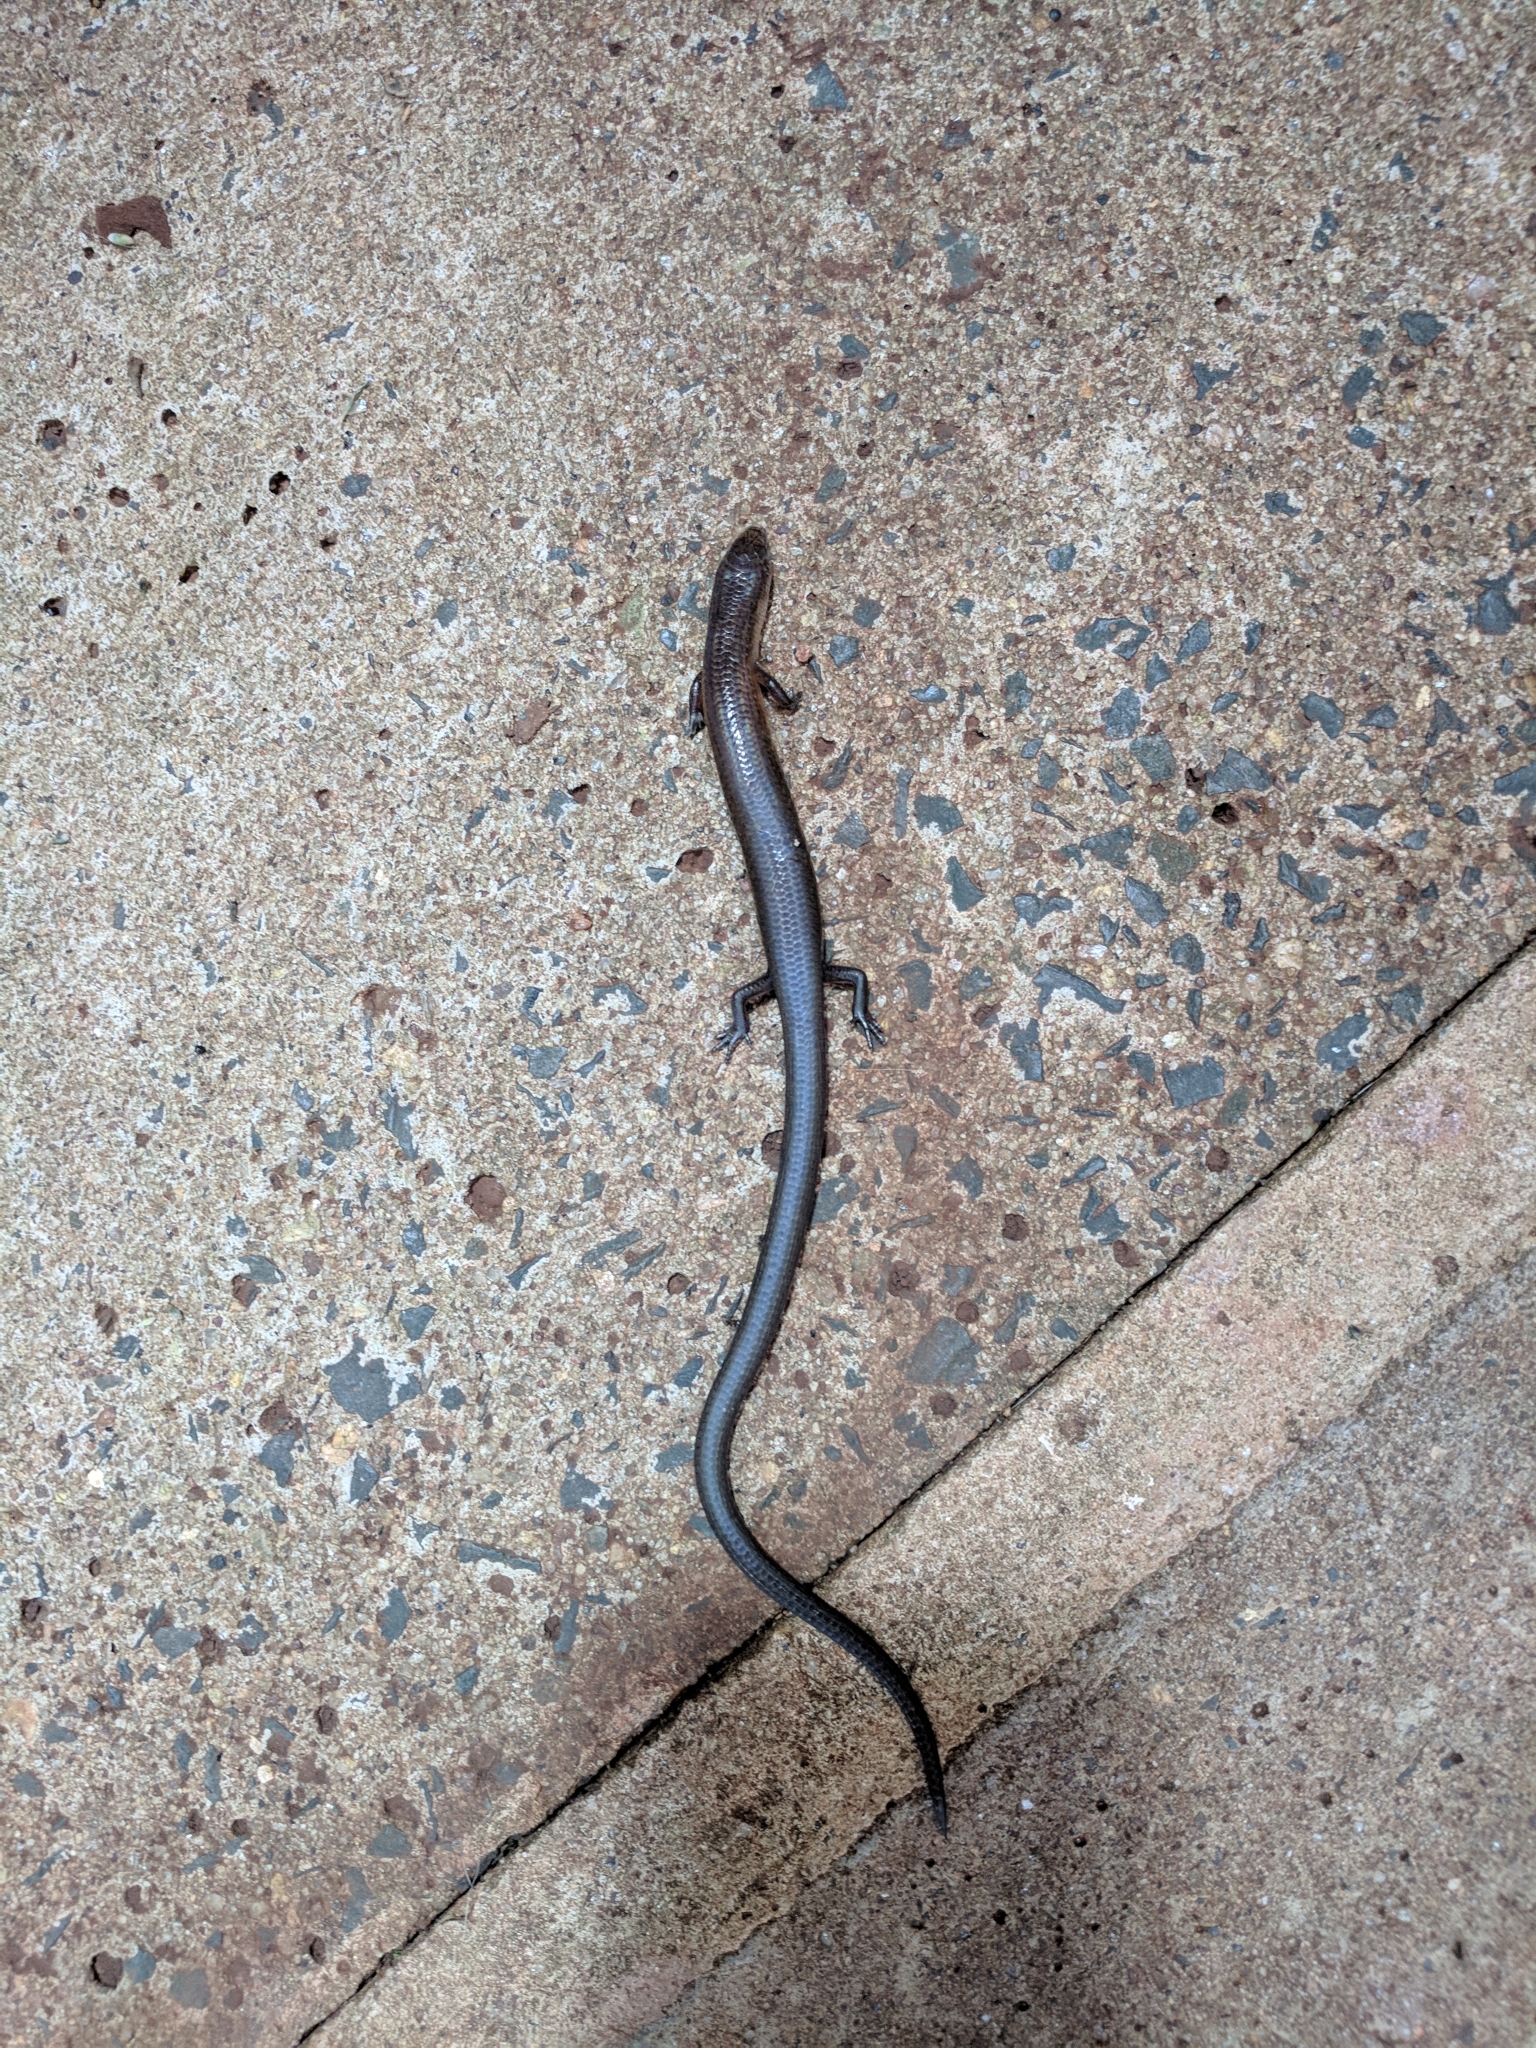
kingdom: Animalia
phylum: Chordata
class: Squamata
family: Scincidae
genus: Leptosiaphos
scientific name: Leptosiaphos kilimensis
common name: Kilimanjaro five-toed skink
